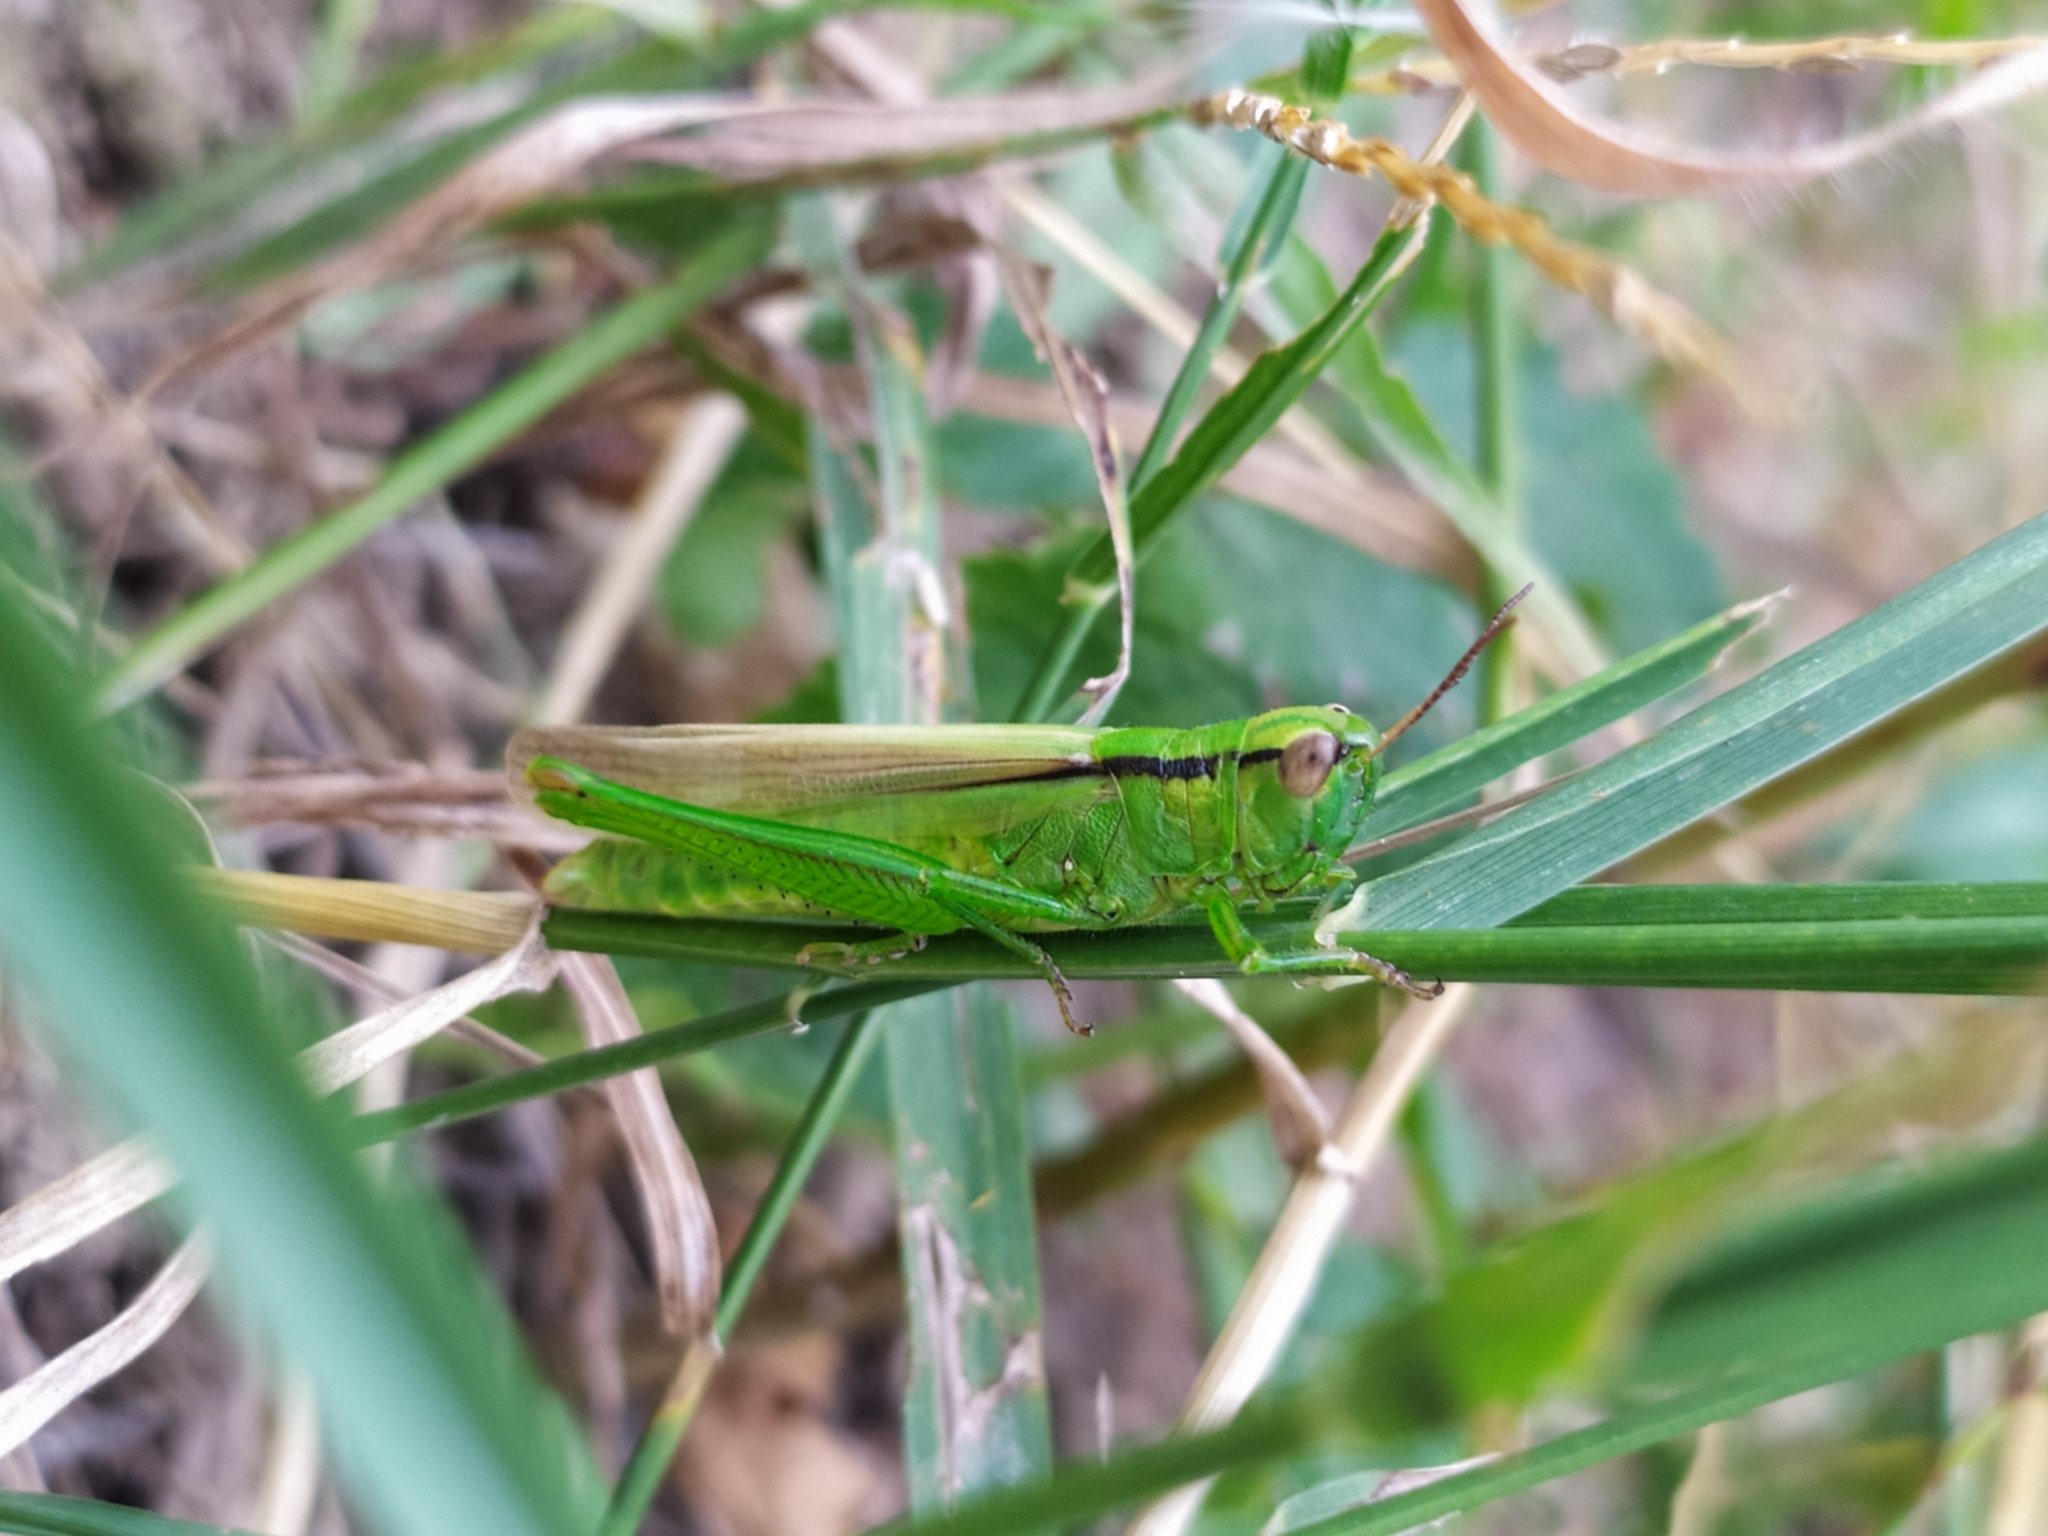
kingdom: Animalia
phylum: Arthropoda
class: Insecta
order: Orthoptera
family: Acrididae
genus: Mecostethus
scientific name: Mecostethus parapleurus
